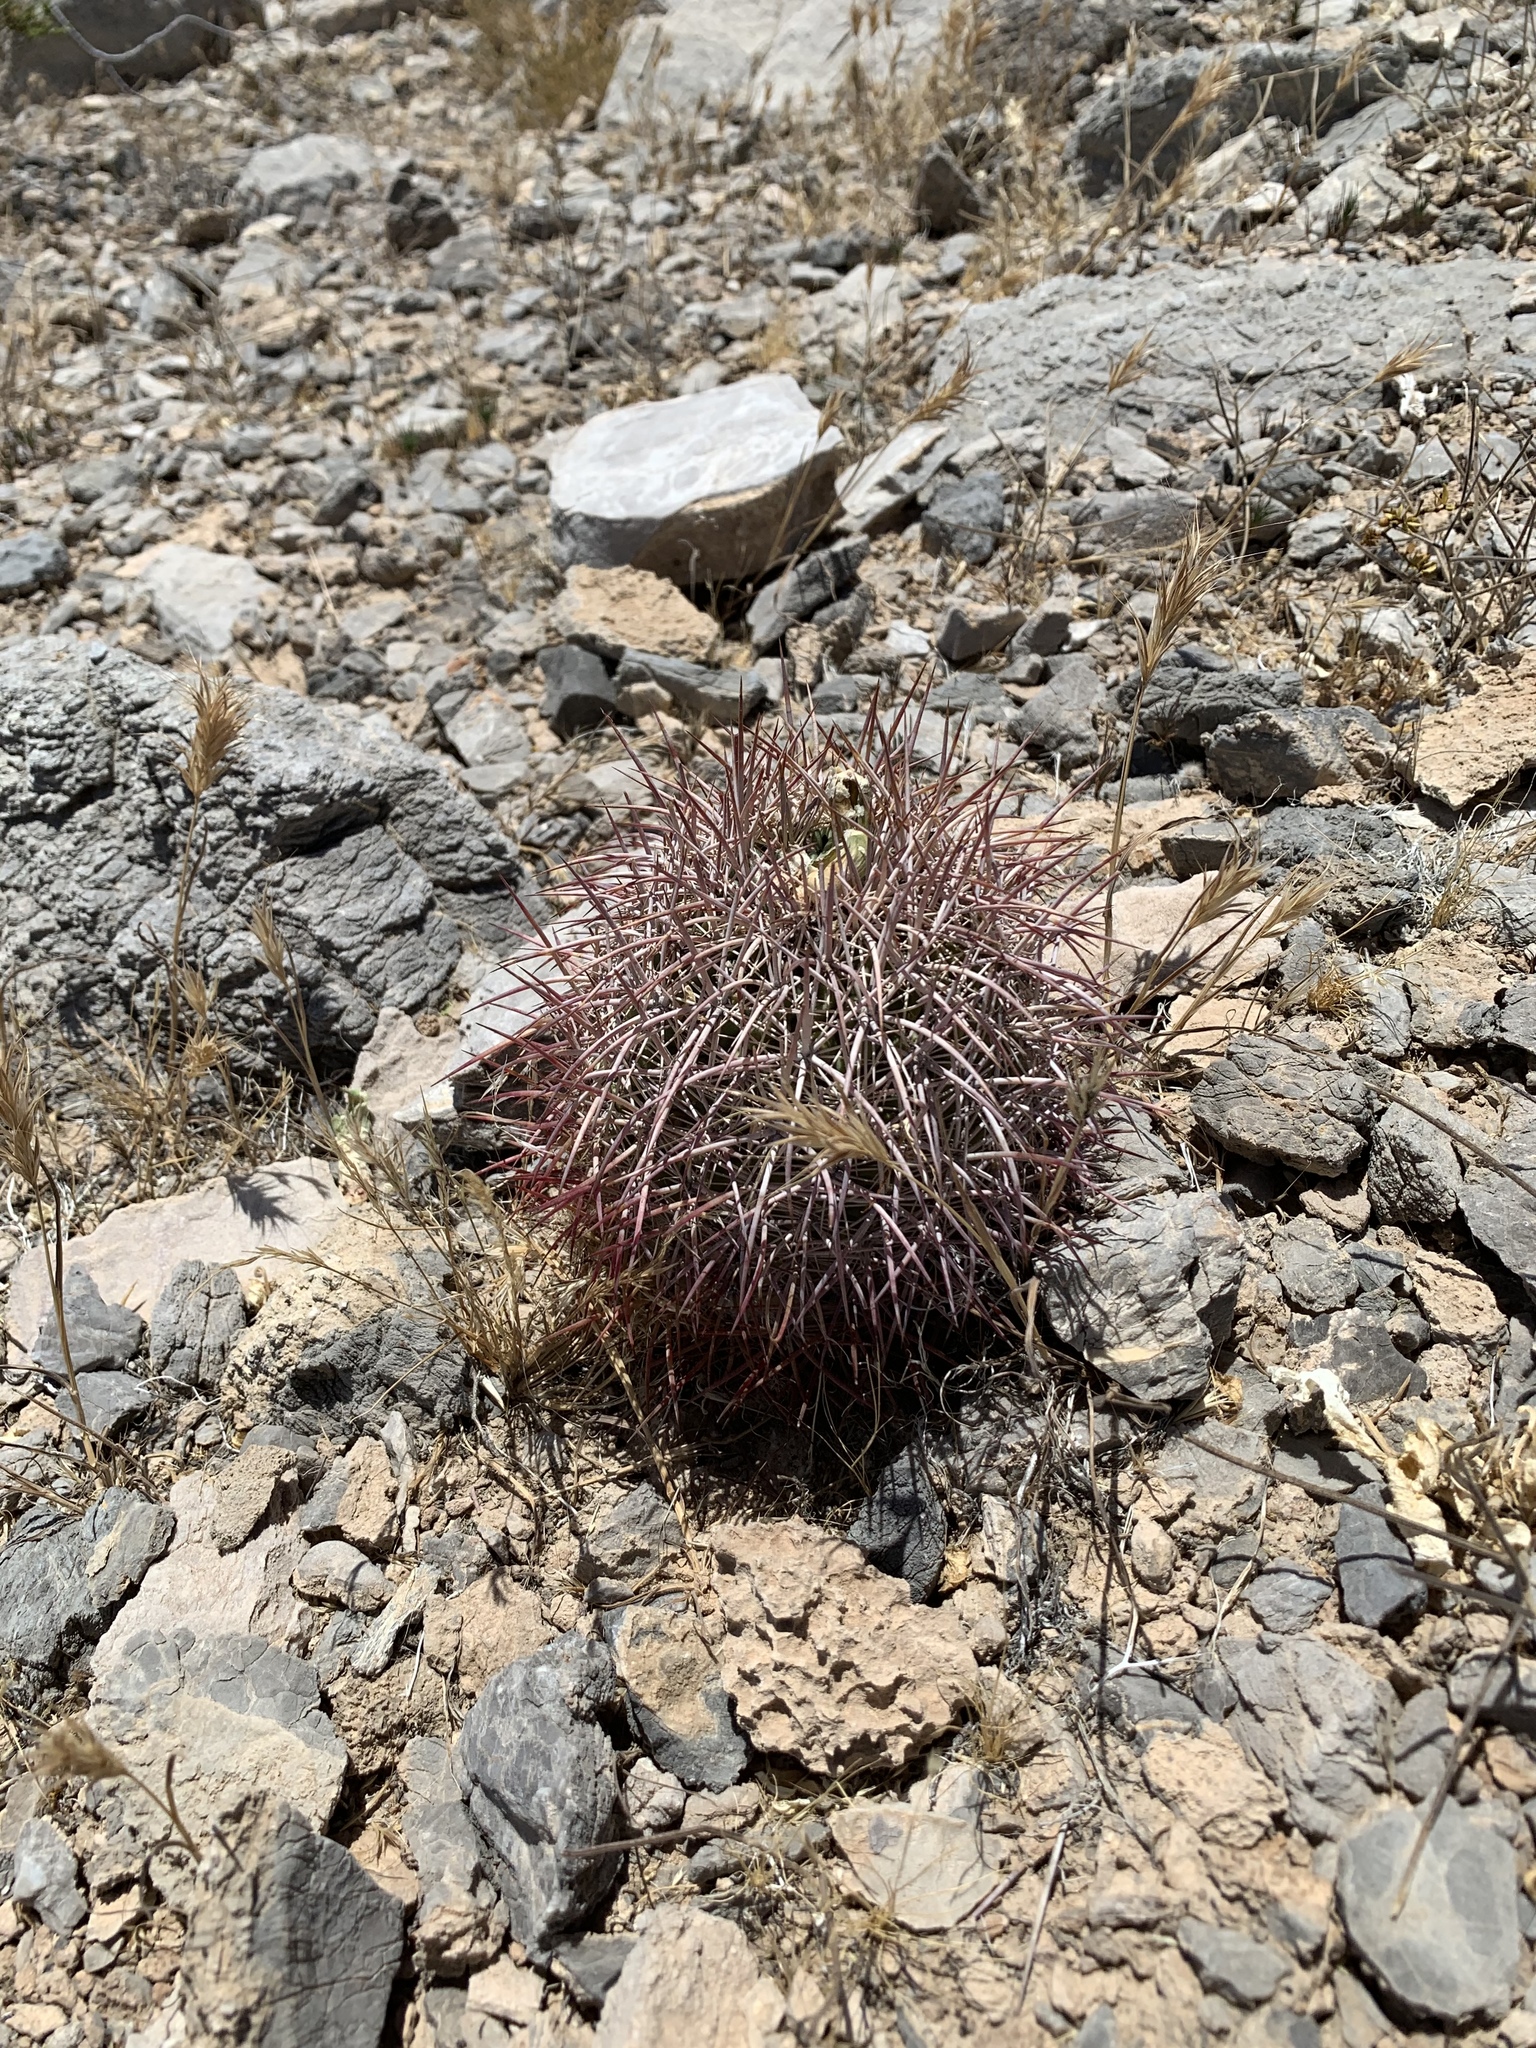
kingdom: Plantae
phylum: Tracheophyta
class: Magnoliopsida
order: Caryophyllales
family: Cactaceae
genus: Sclerocactus
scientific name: Sclerocactus johnsonii
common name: Eight-spine fishhook cactus
